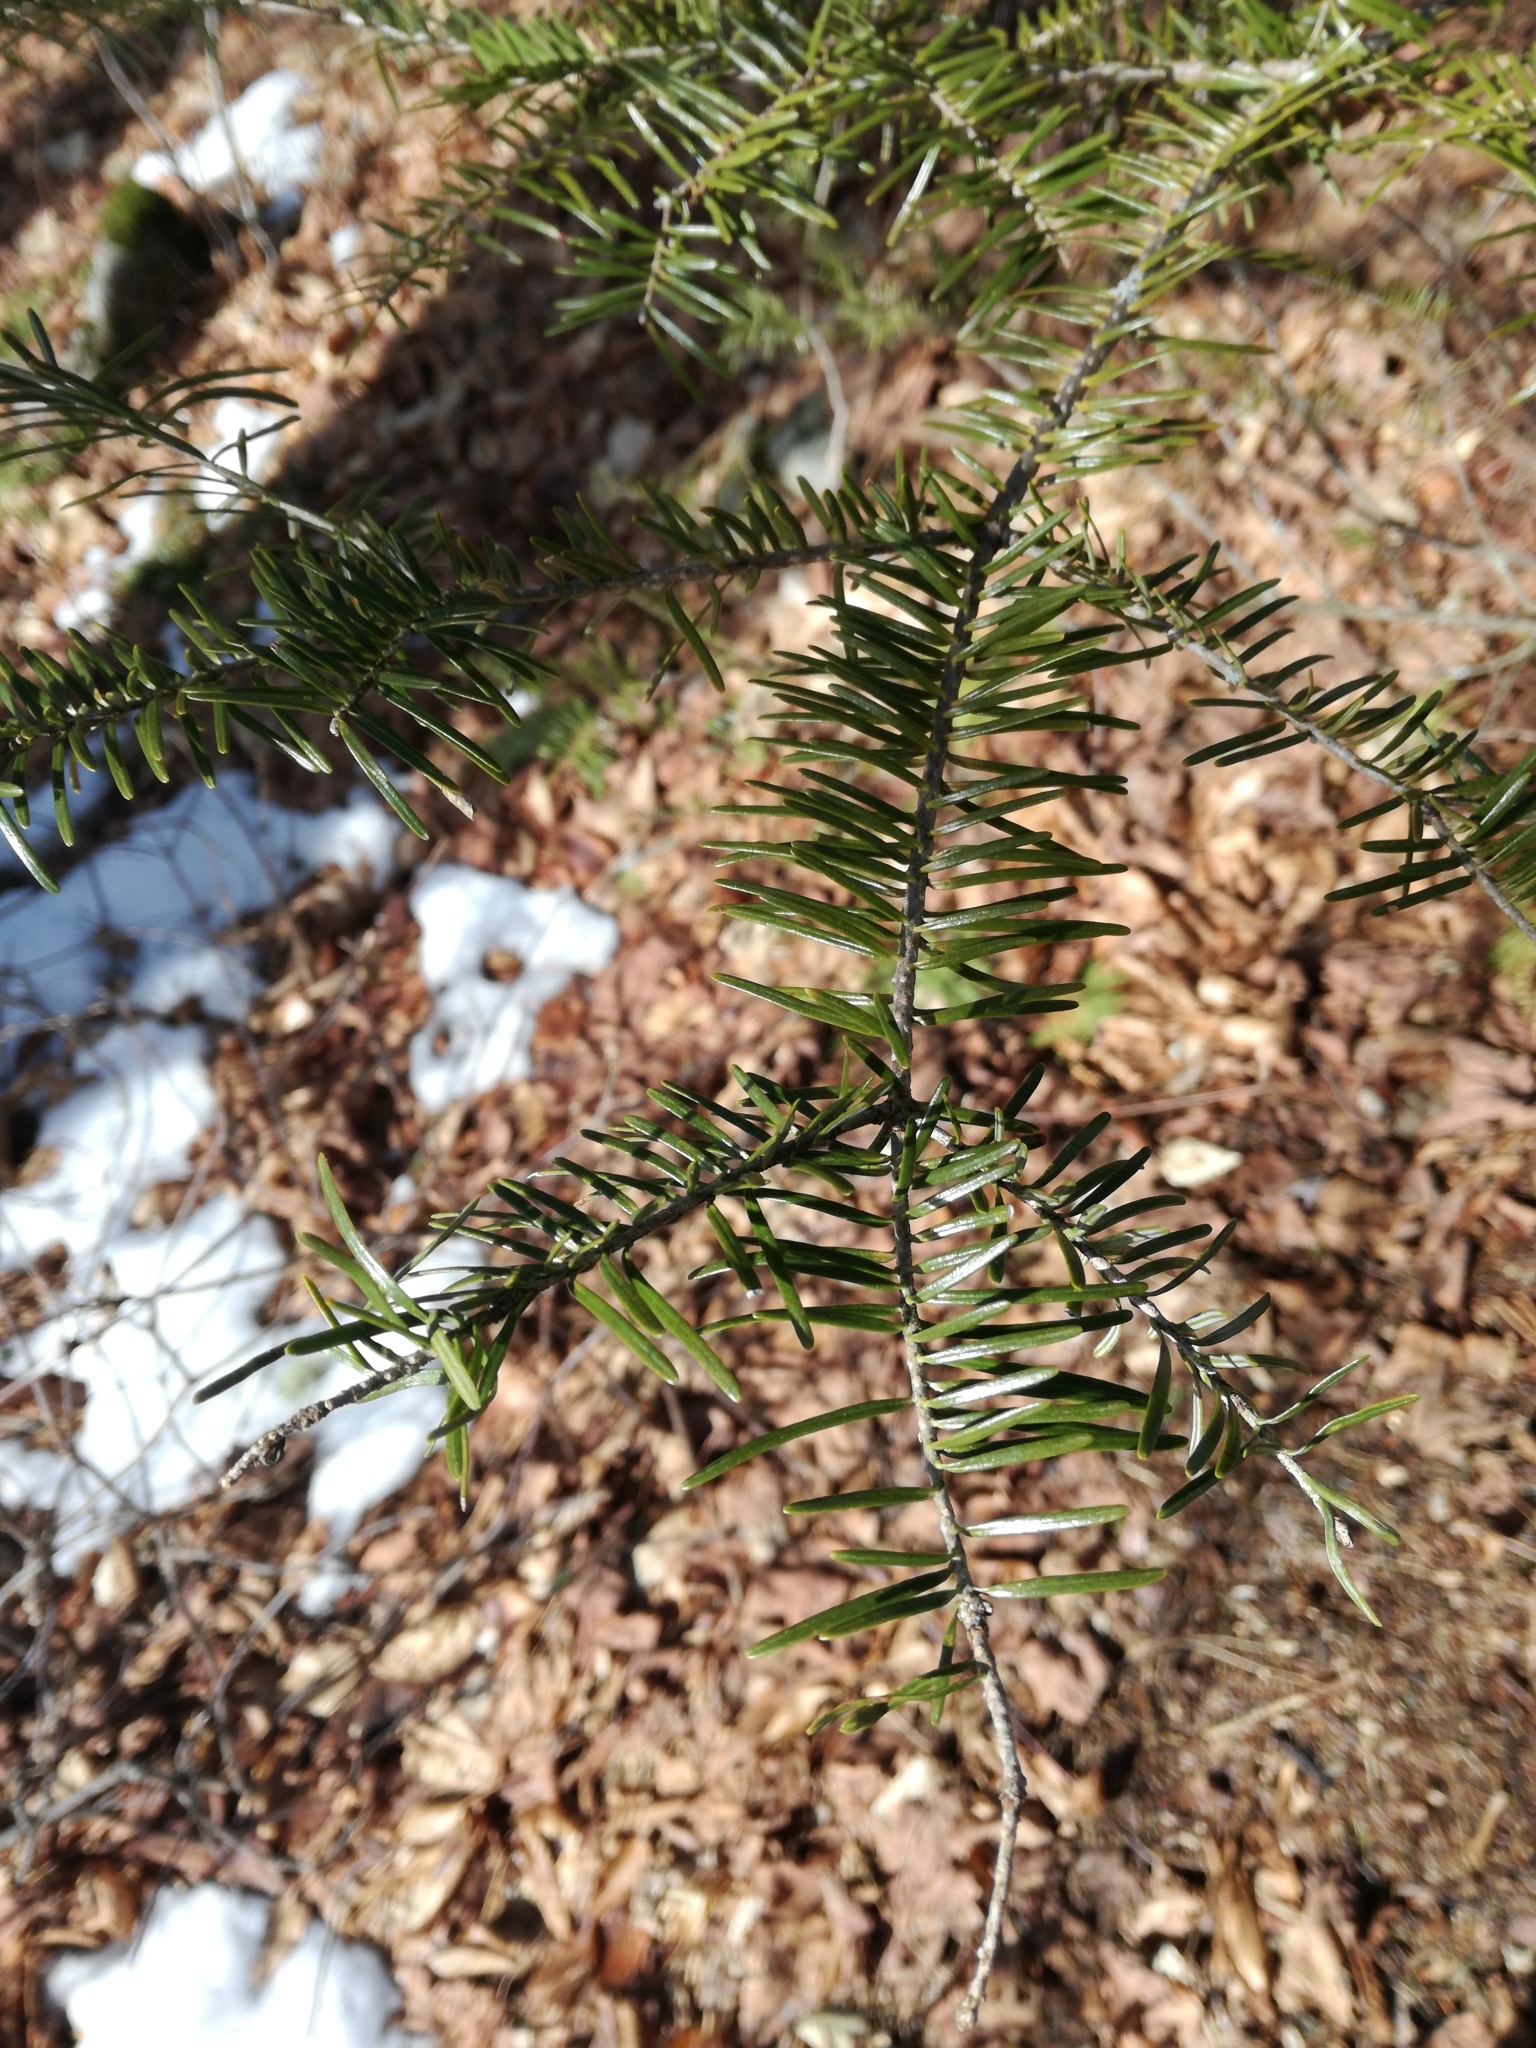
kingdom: Plantae
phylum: Tracheophyta
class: Pinopsida
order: Pinales
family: Pinaceae
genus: Abies
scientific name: Abies balsamea
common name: Balsam fir
